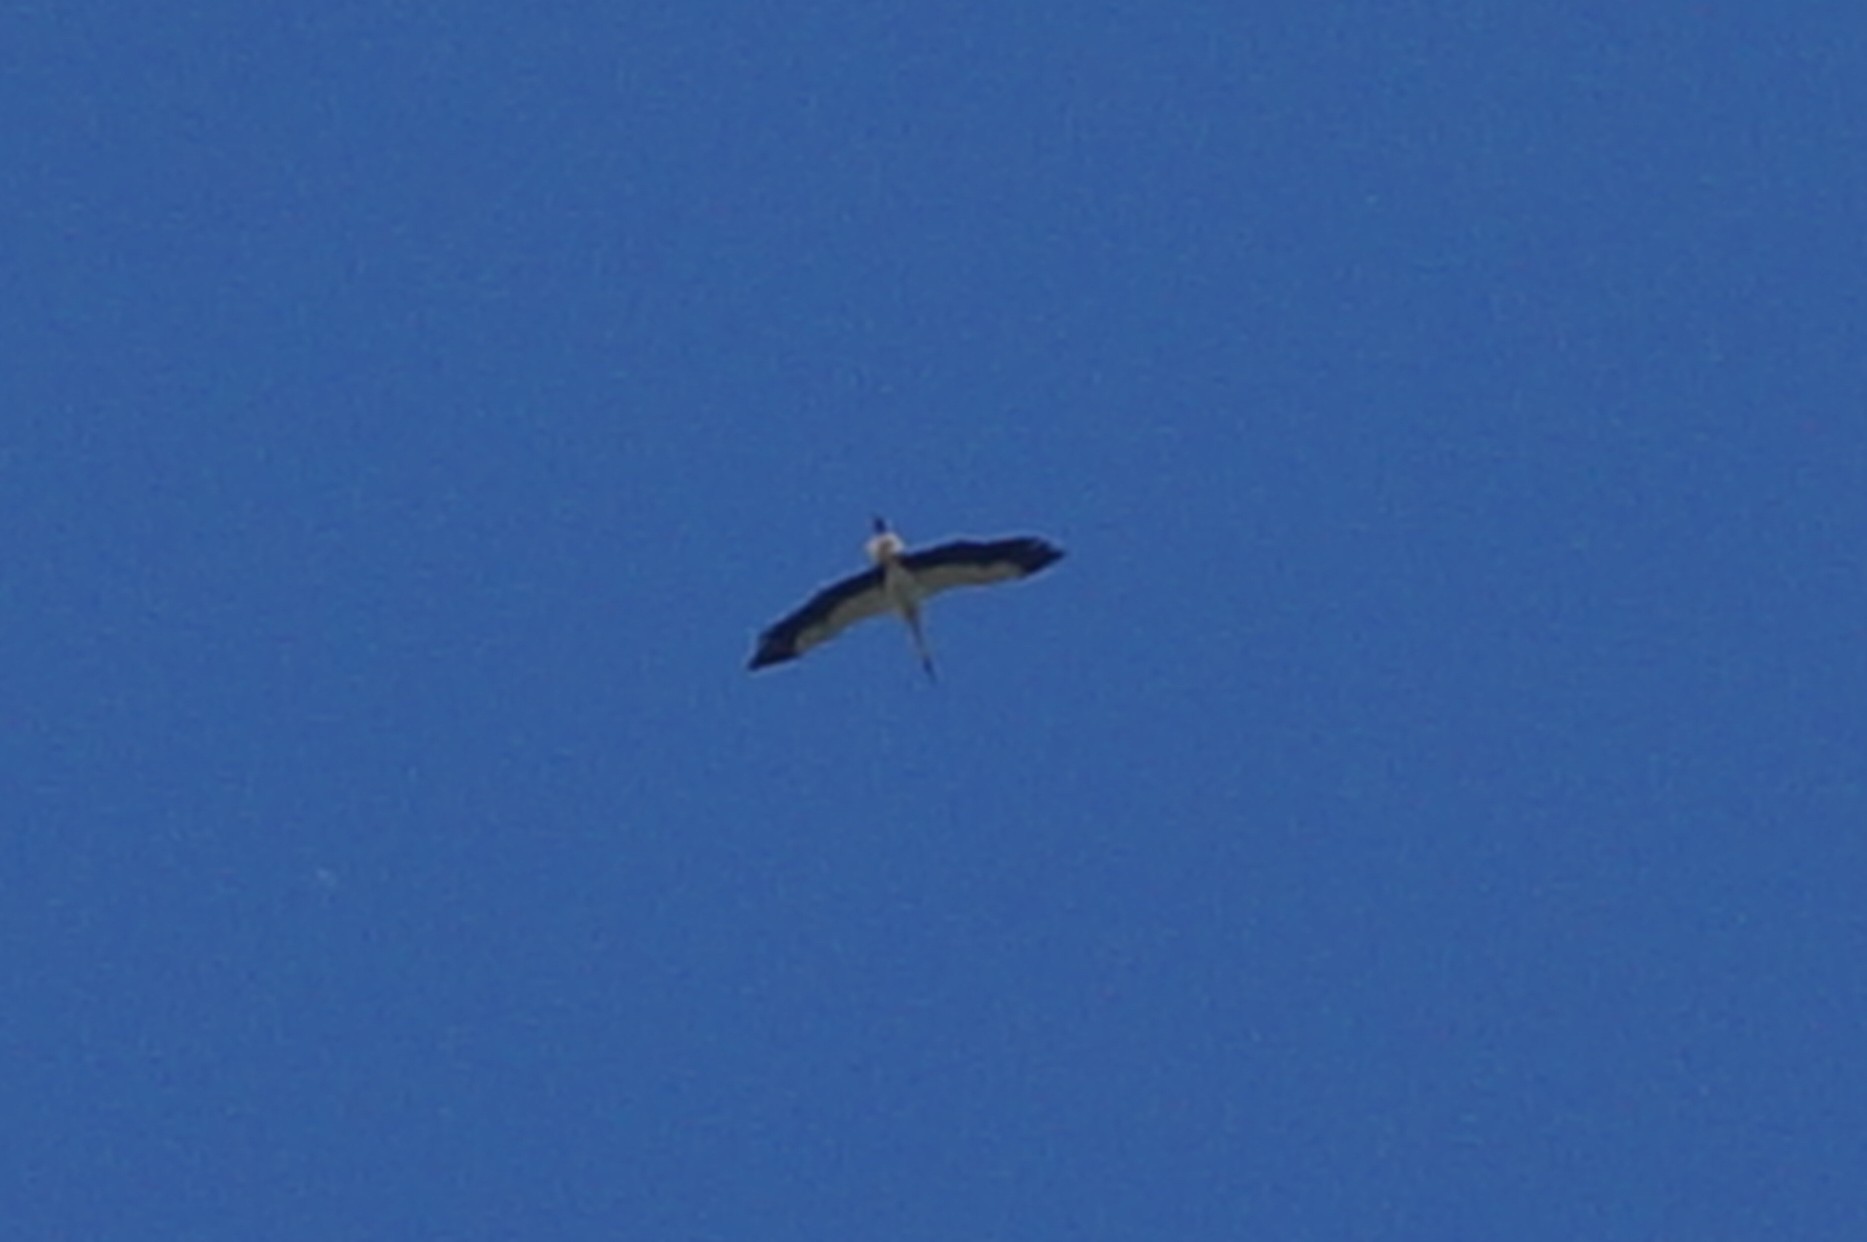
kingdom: Animalia
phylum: Chordata
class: Aves
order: Ciconiiformes
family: Ciconiidae
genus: Ciconia
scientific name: Ciconia ciconia
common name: White stork
